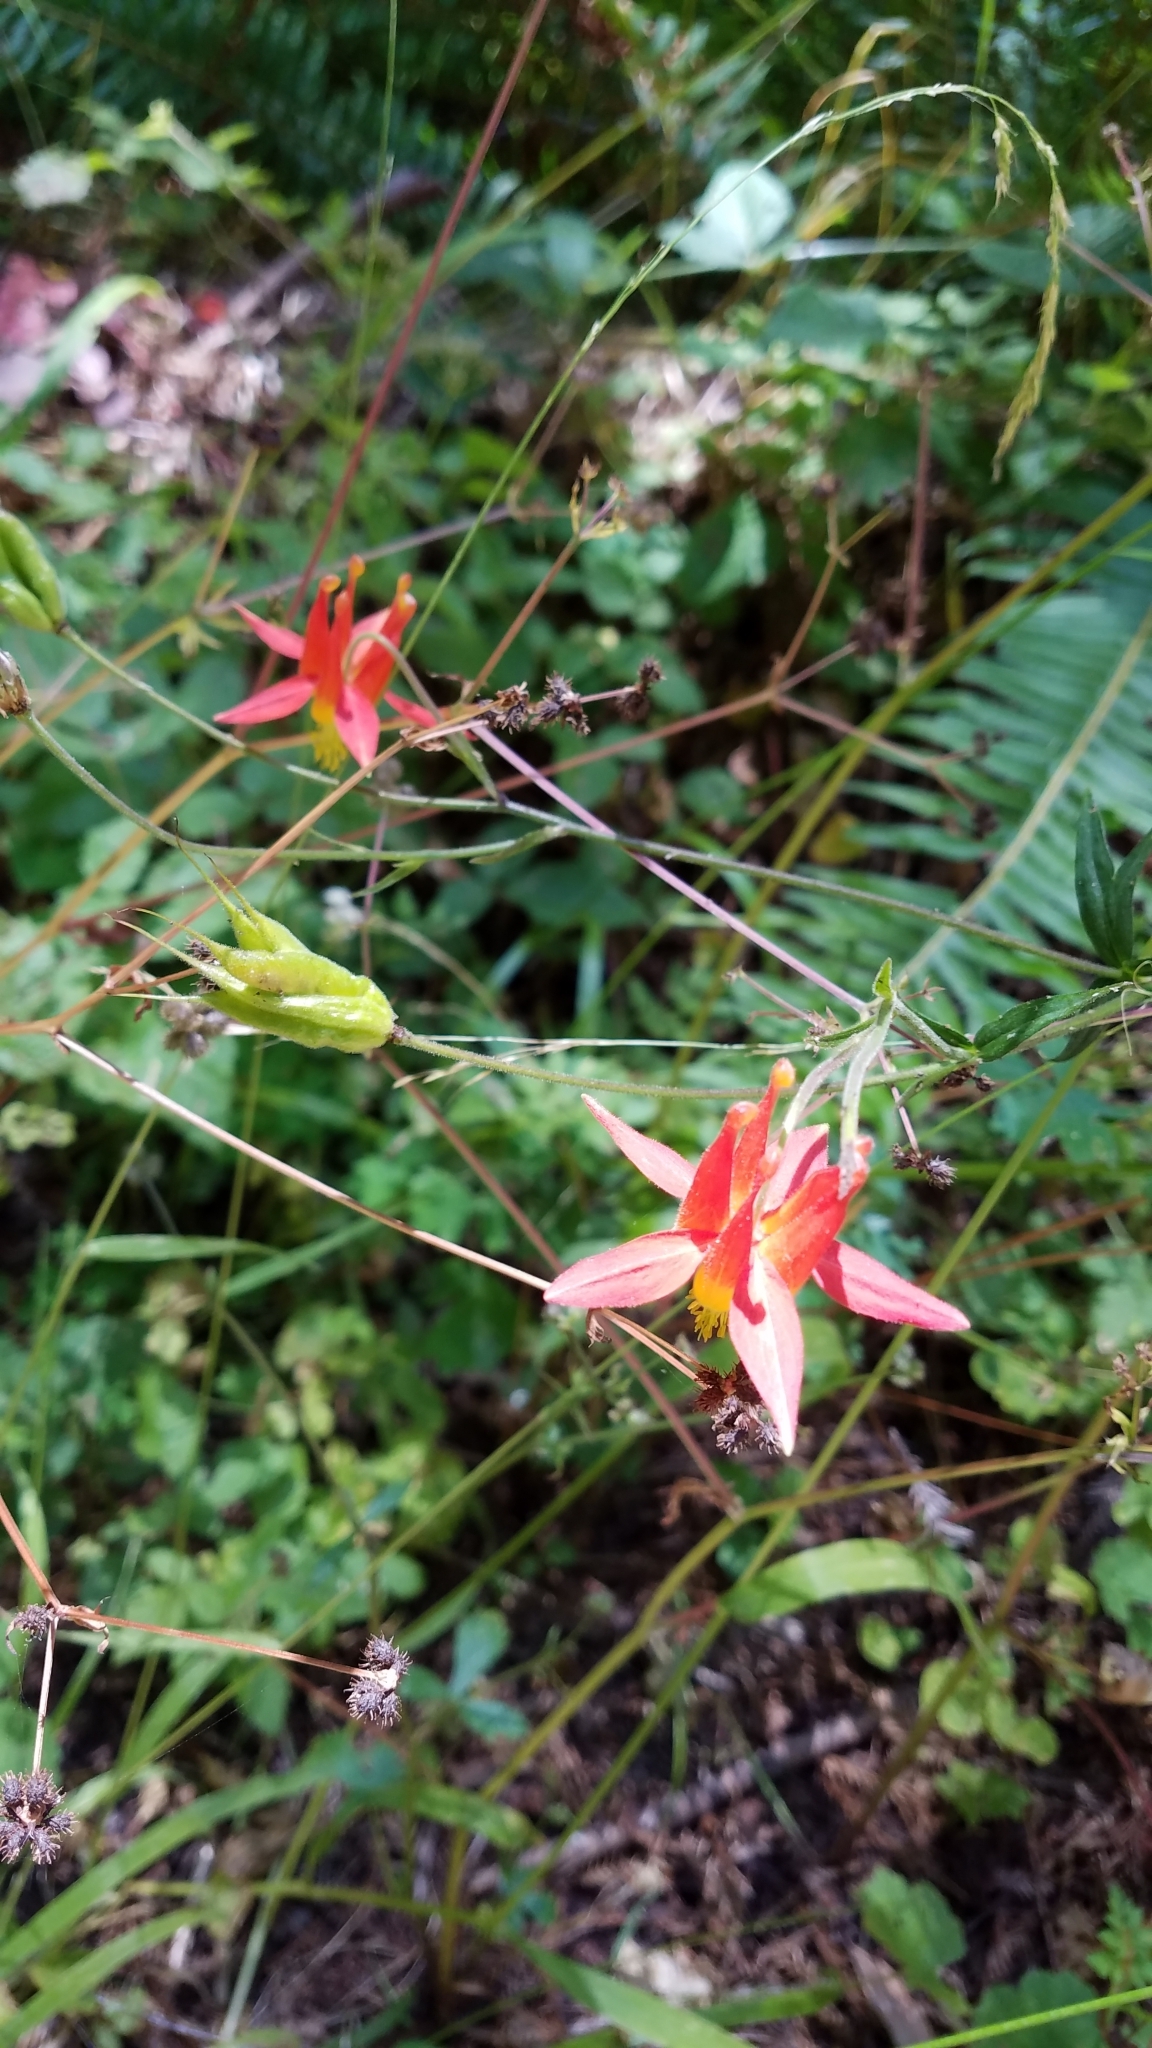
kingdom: Plantae
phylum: Tracheophyta
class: Magnoliopsida
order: Ranunculales
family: Ranunculaceae
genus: Aquilegia
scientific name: Aquilegia formosa
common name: Sitka columbine
